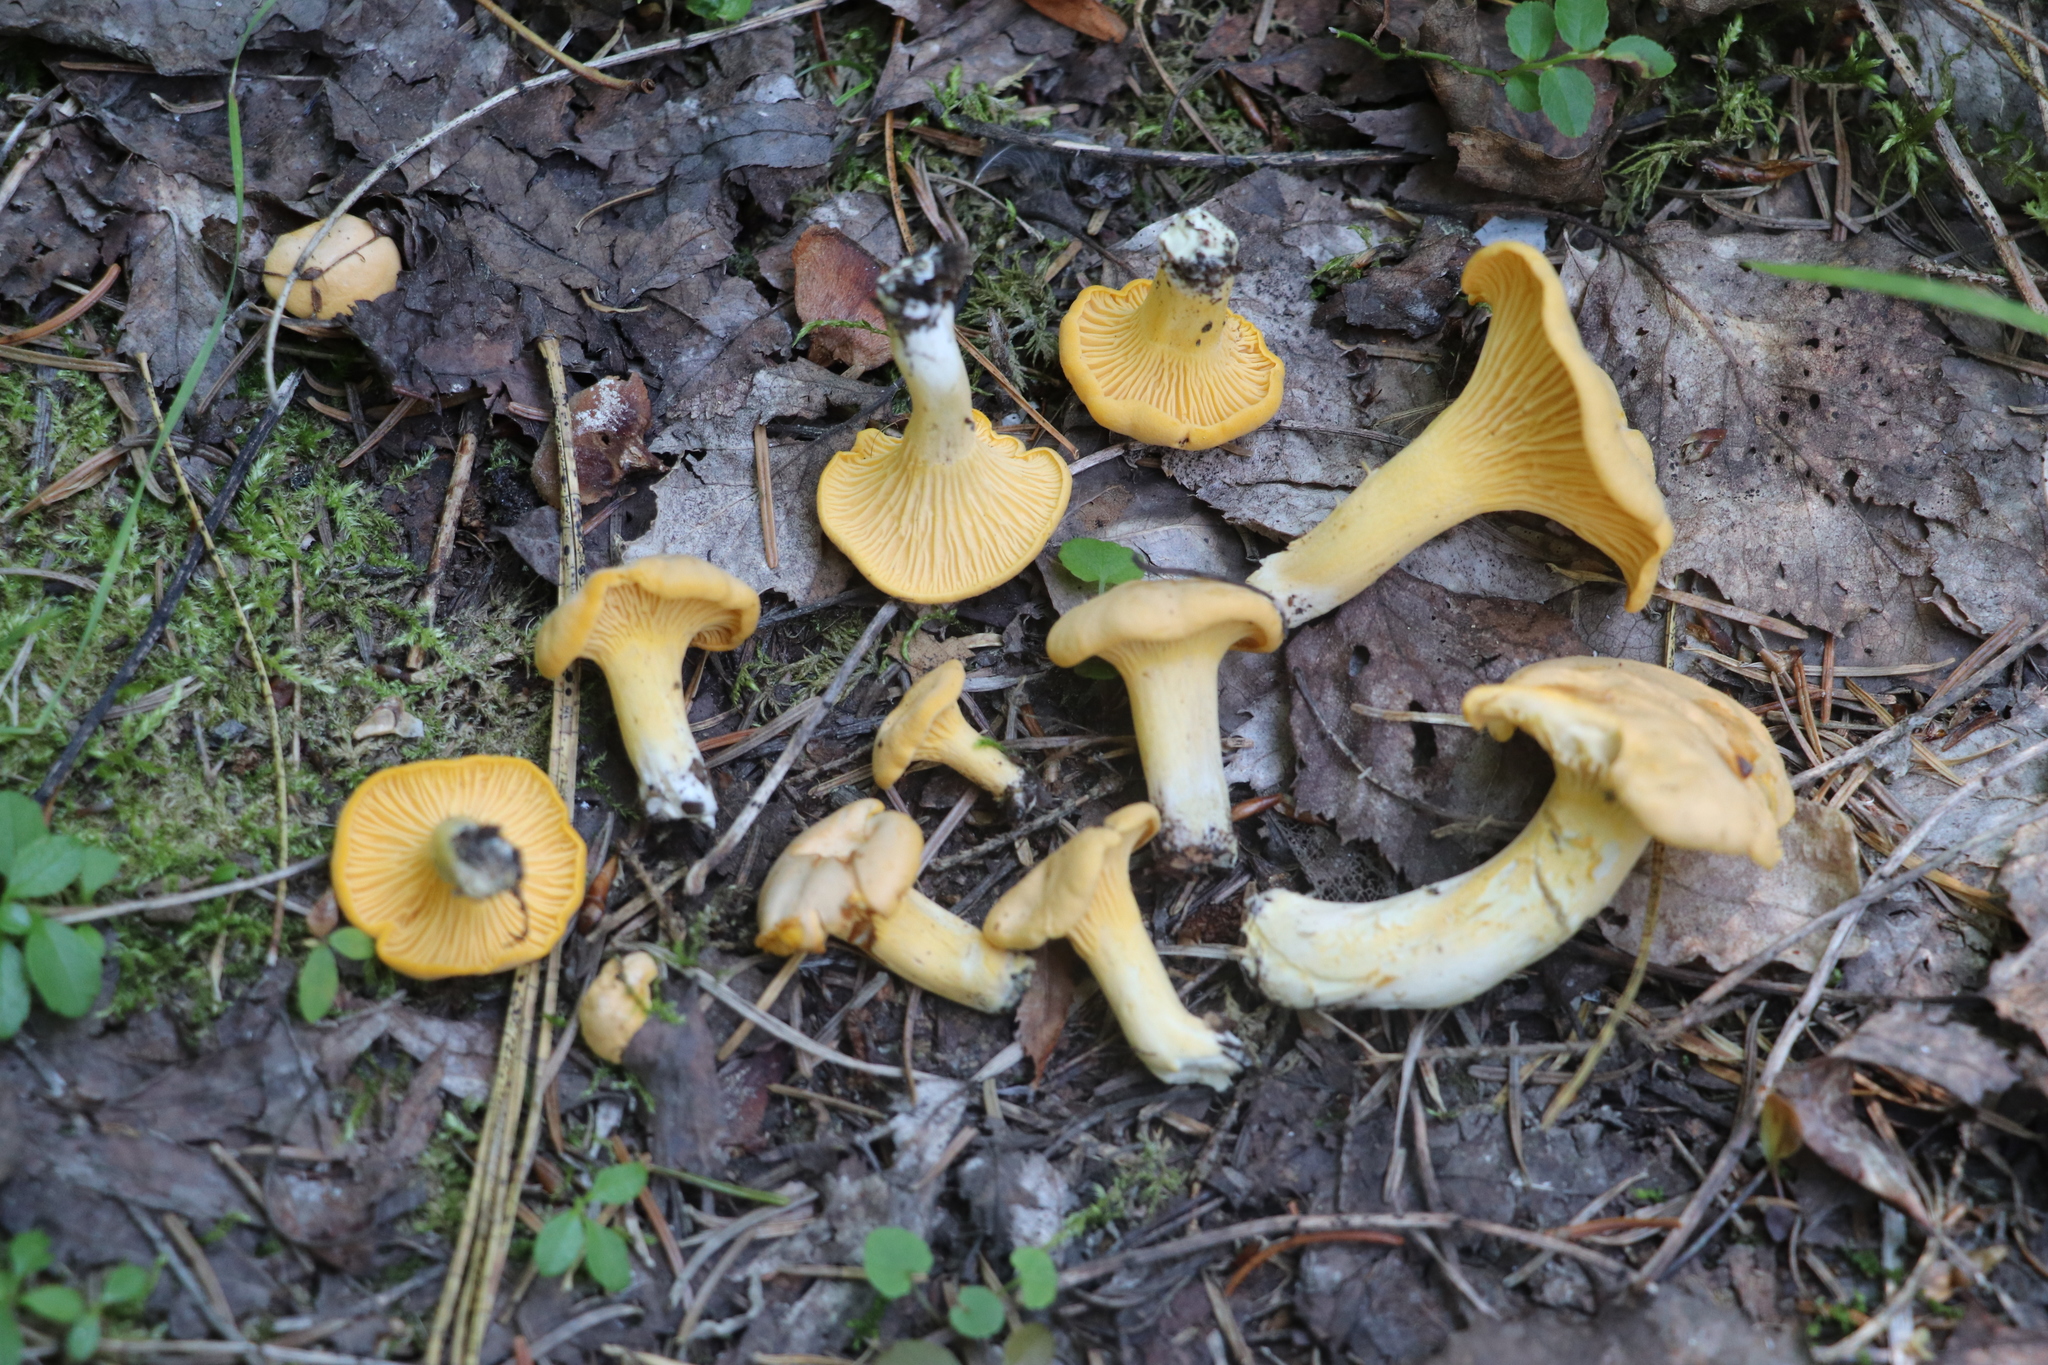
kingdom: Fungi
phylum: Basidiomycota
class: Agaricomycetes
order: Cantharellales
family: Hydnaceae
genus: Cantharellus
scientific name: Cantharellus cibarius
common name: Chanterelle
